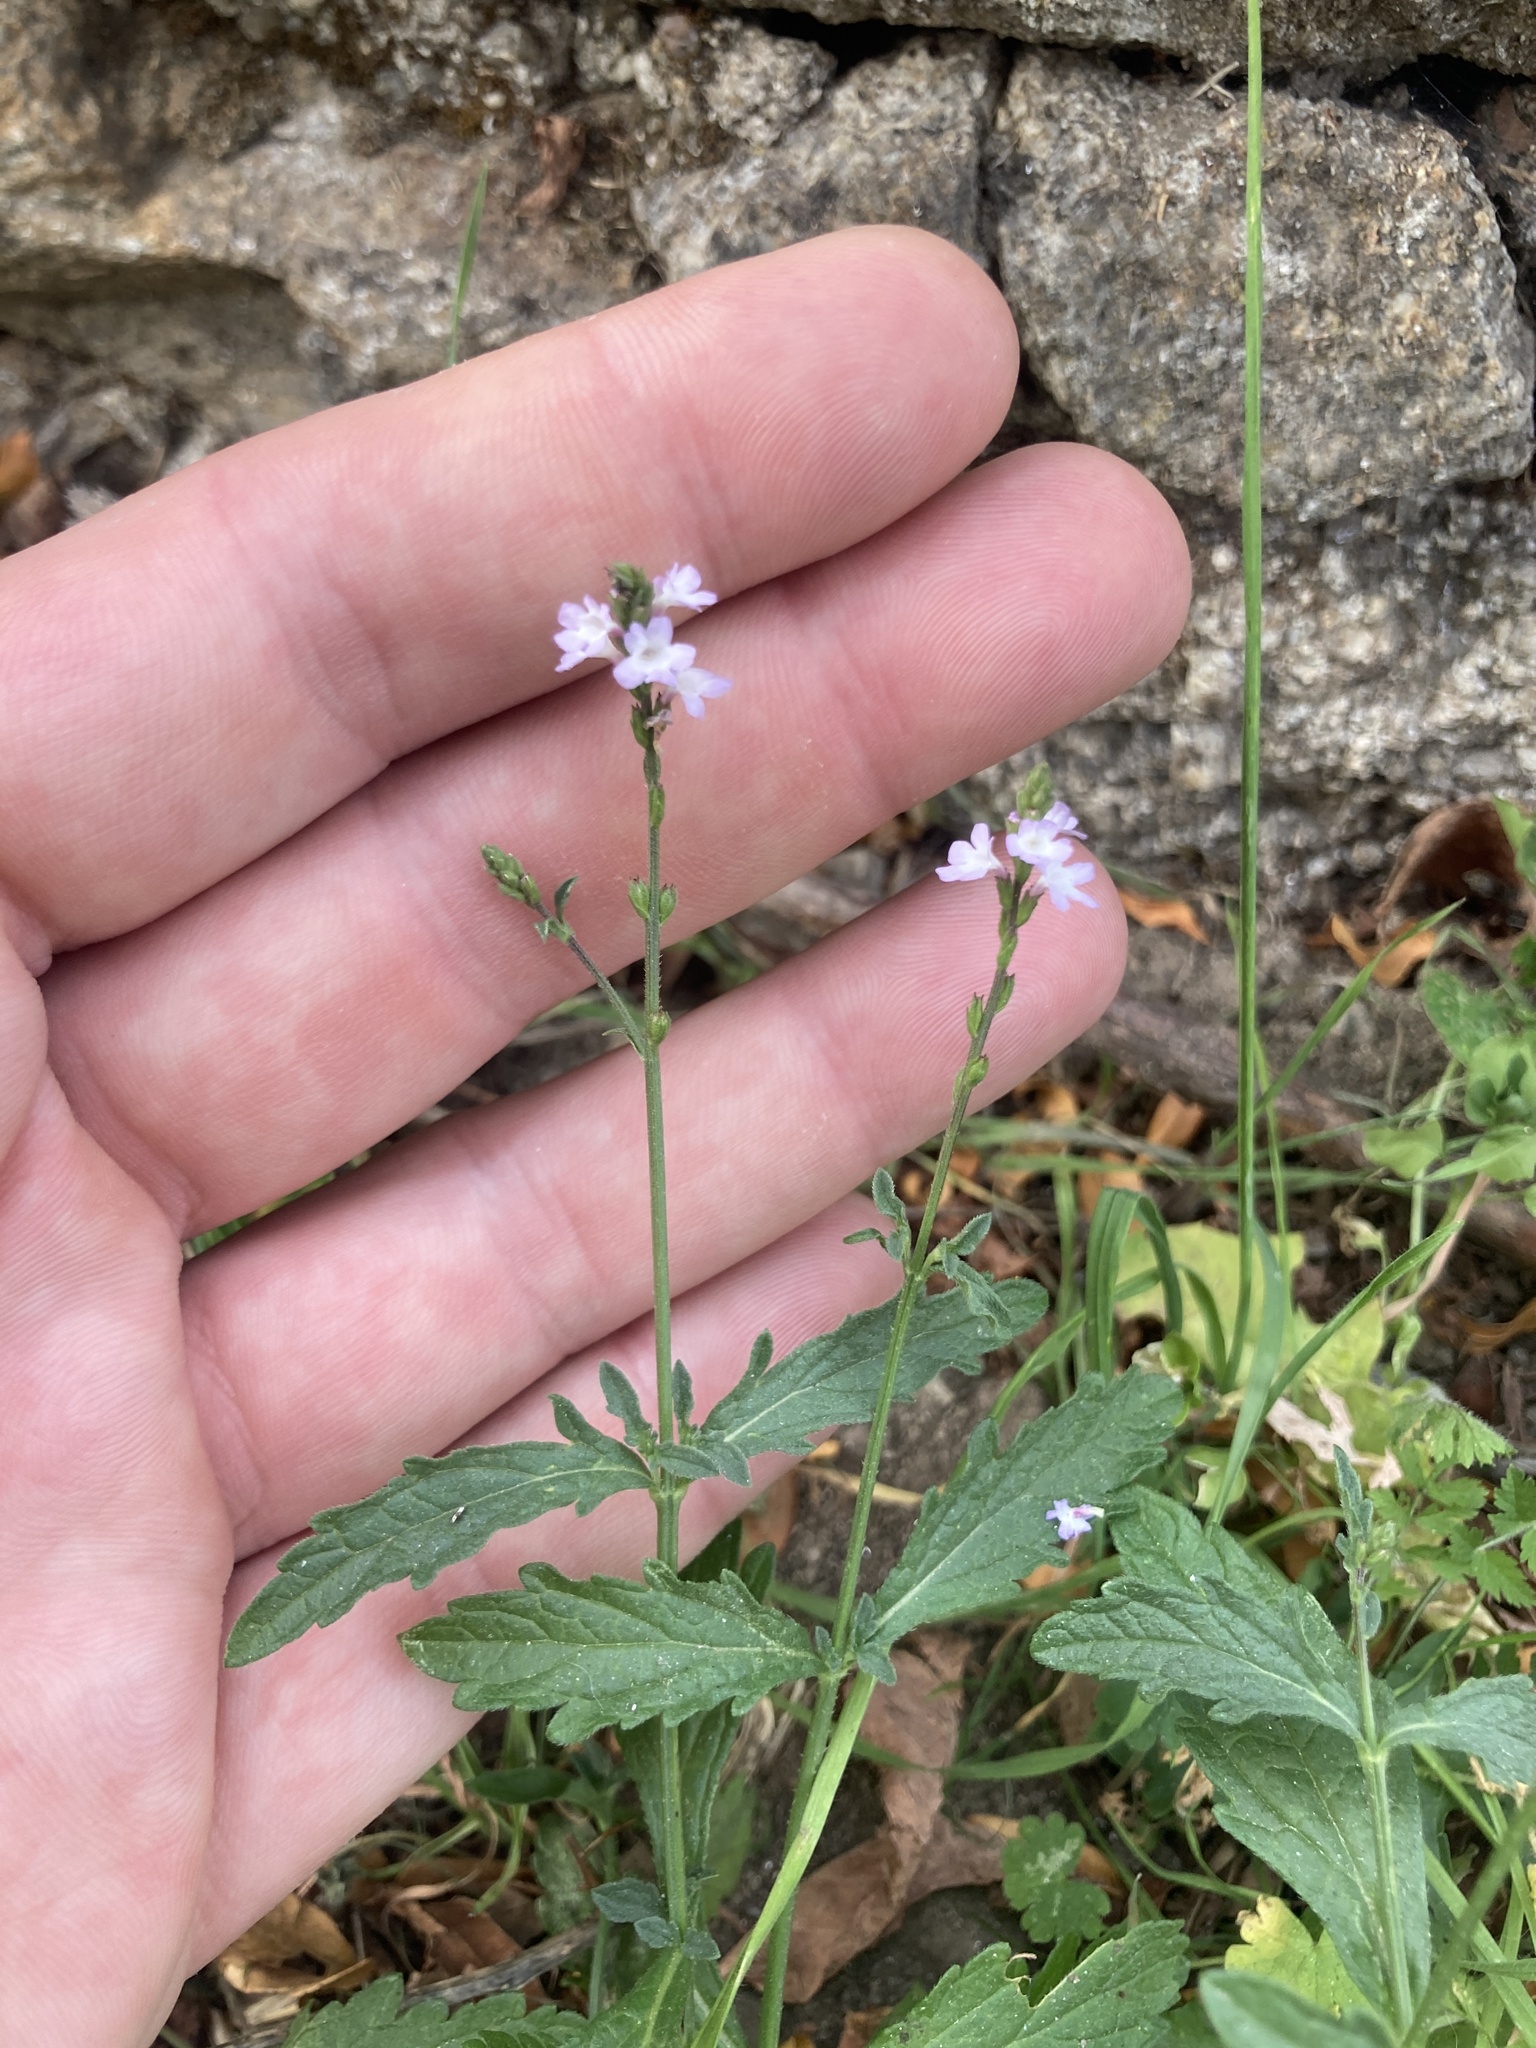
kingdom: Plantae
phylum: Tracheophyta
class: Magnoliopsida
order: Lamiales
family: Verbenaceae
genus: Verbena
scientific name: Verbena officinalis
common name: Vervain
